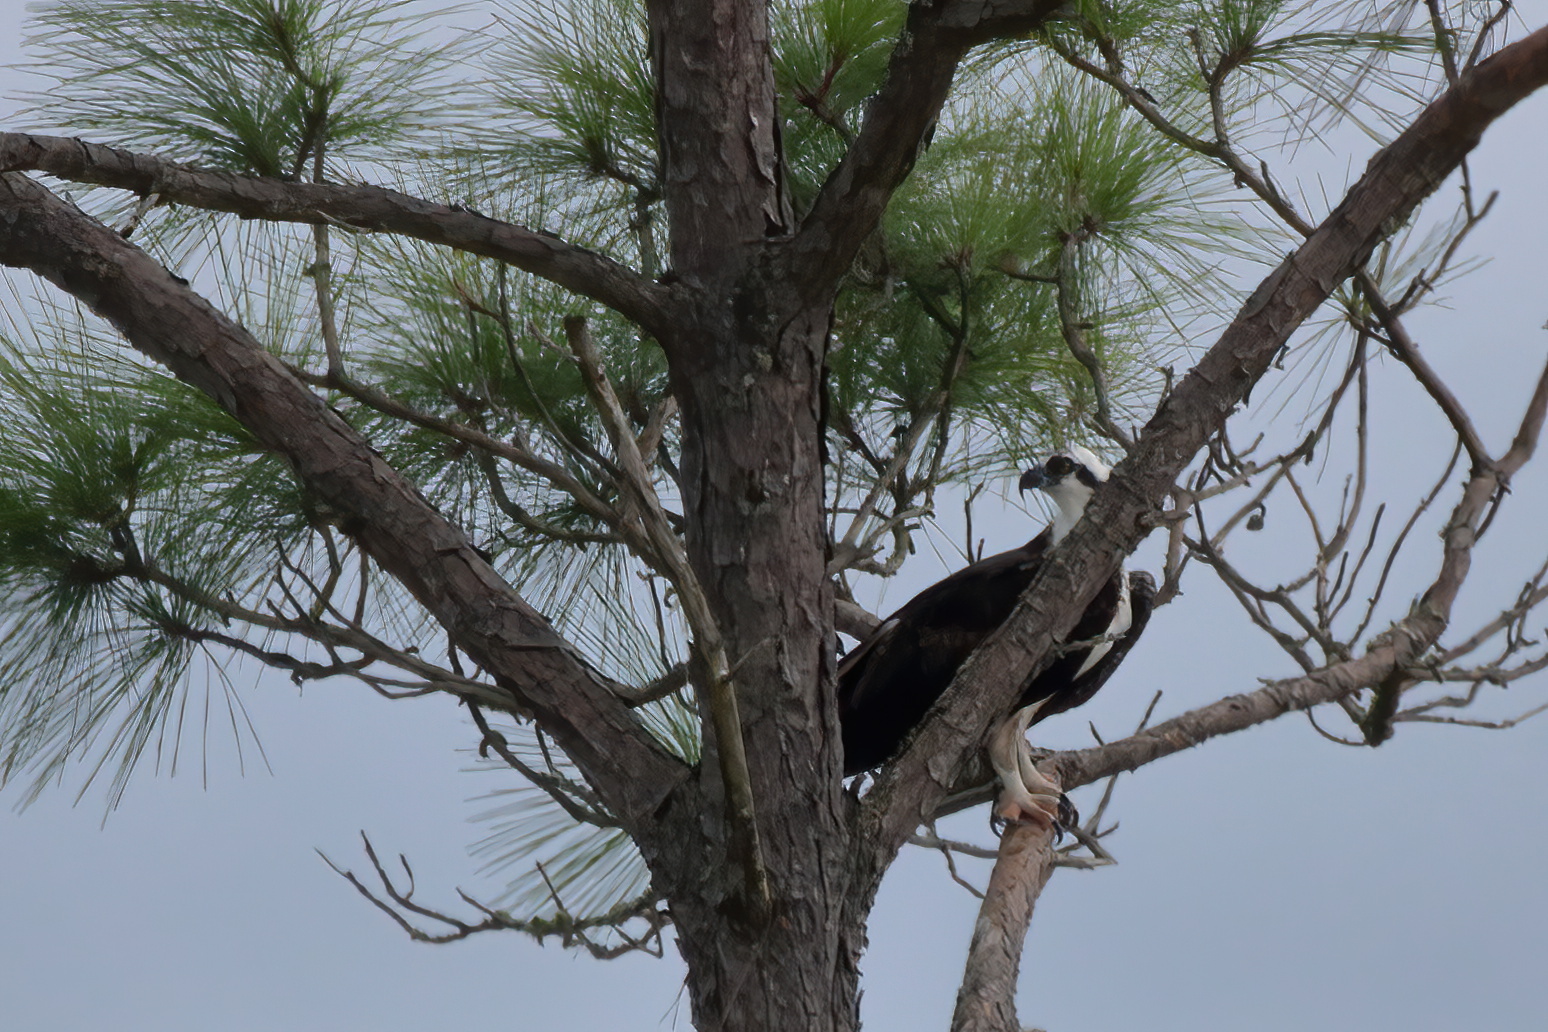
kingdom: Animalia
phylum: Chordata
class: Aves
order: Accipitriformes
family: Pandionidae
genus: Pandion
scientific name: Pandion haliaetus
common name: Osprey
